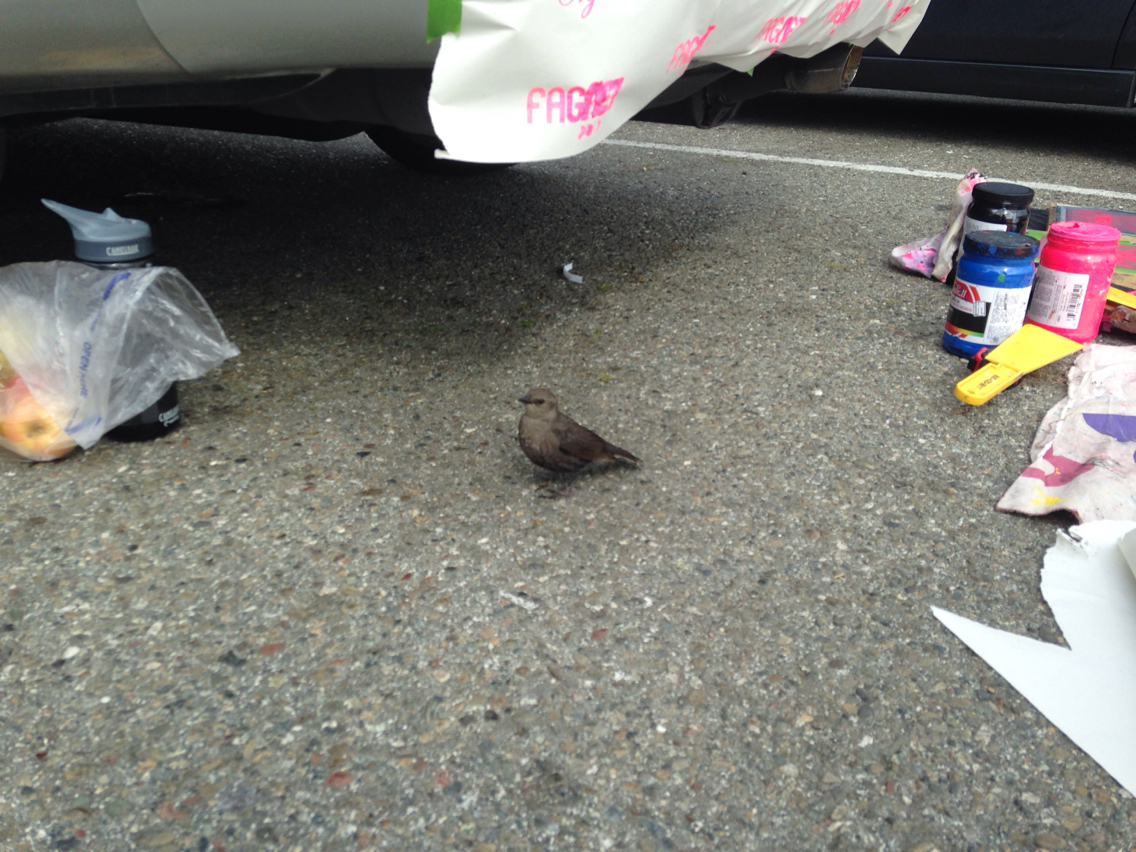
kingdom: Animalia
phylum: Chordata
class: Aves
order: Passeriformes
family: Icteridae
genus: Euphagus
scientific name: Euphagus cyanocephalus
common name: Brewer's blackbird
